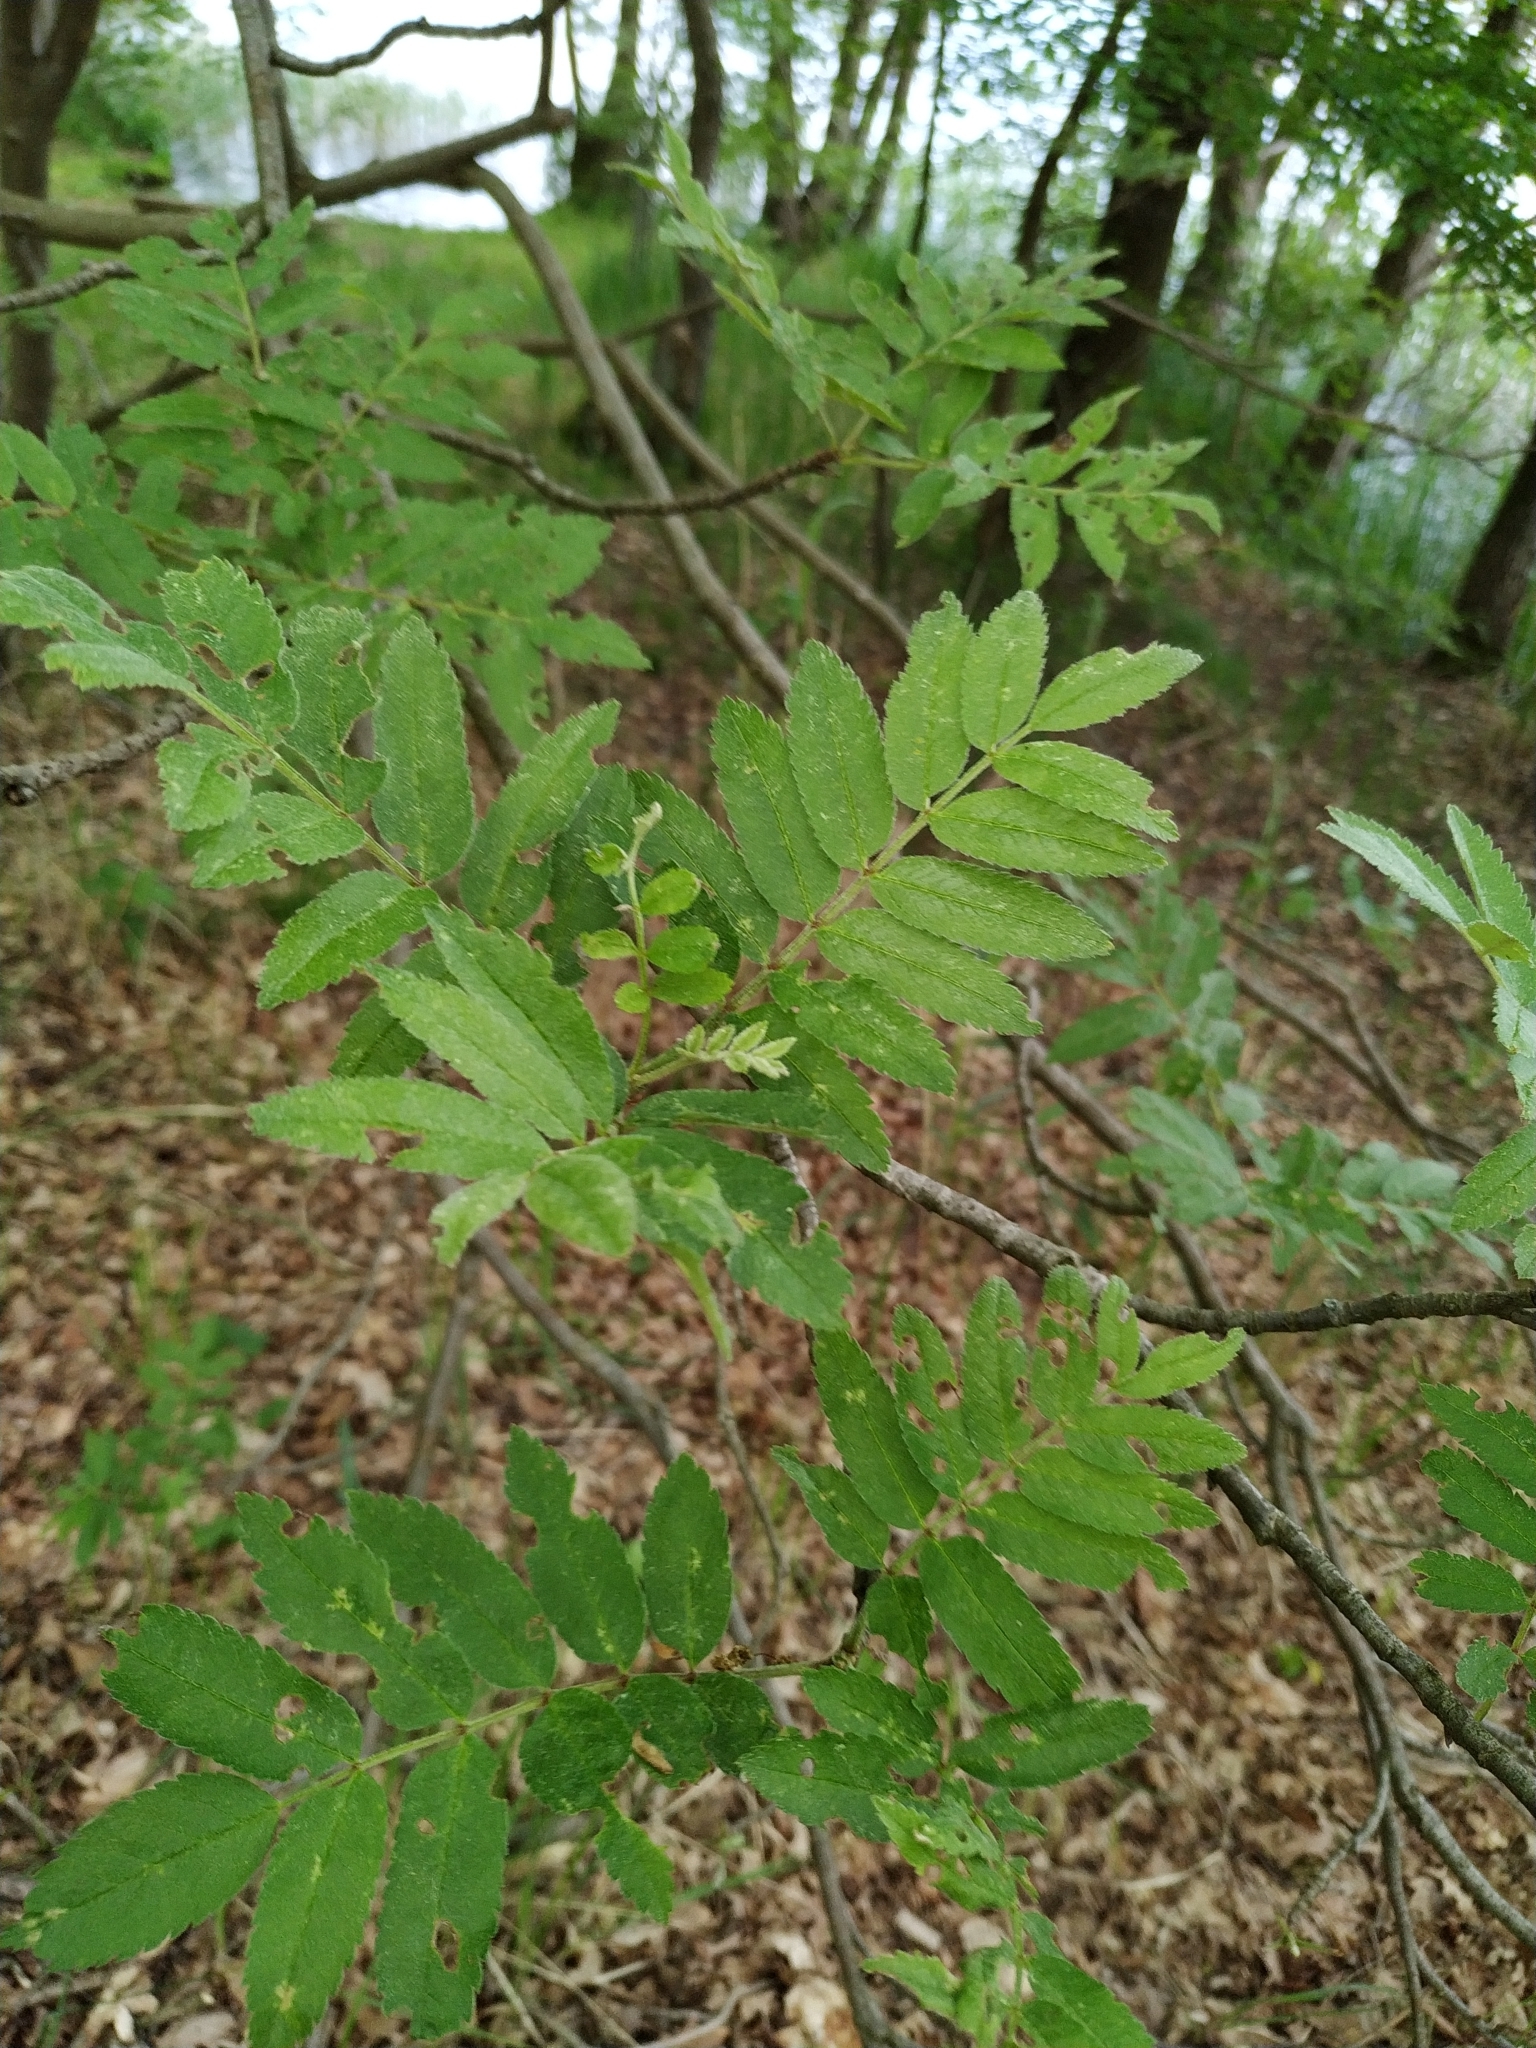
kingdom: Plantae
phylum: Tracheophyta
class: Magnoliopsida
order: Rosales
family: Rosaceae
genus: Sorbus
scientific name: Sorbus aucuparia
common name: Rowan
